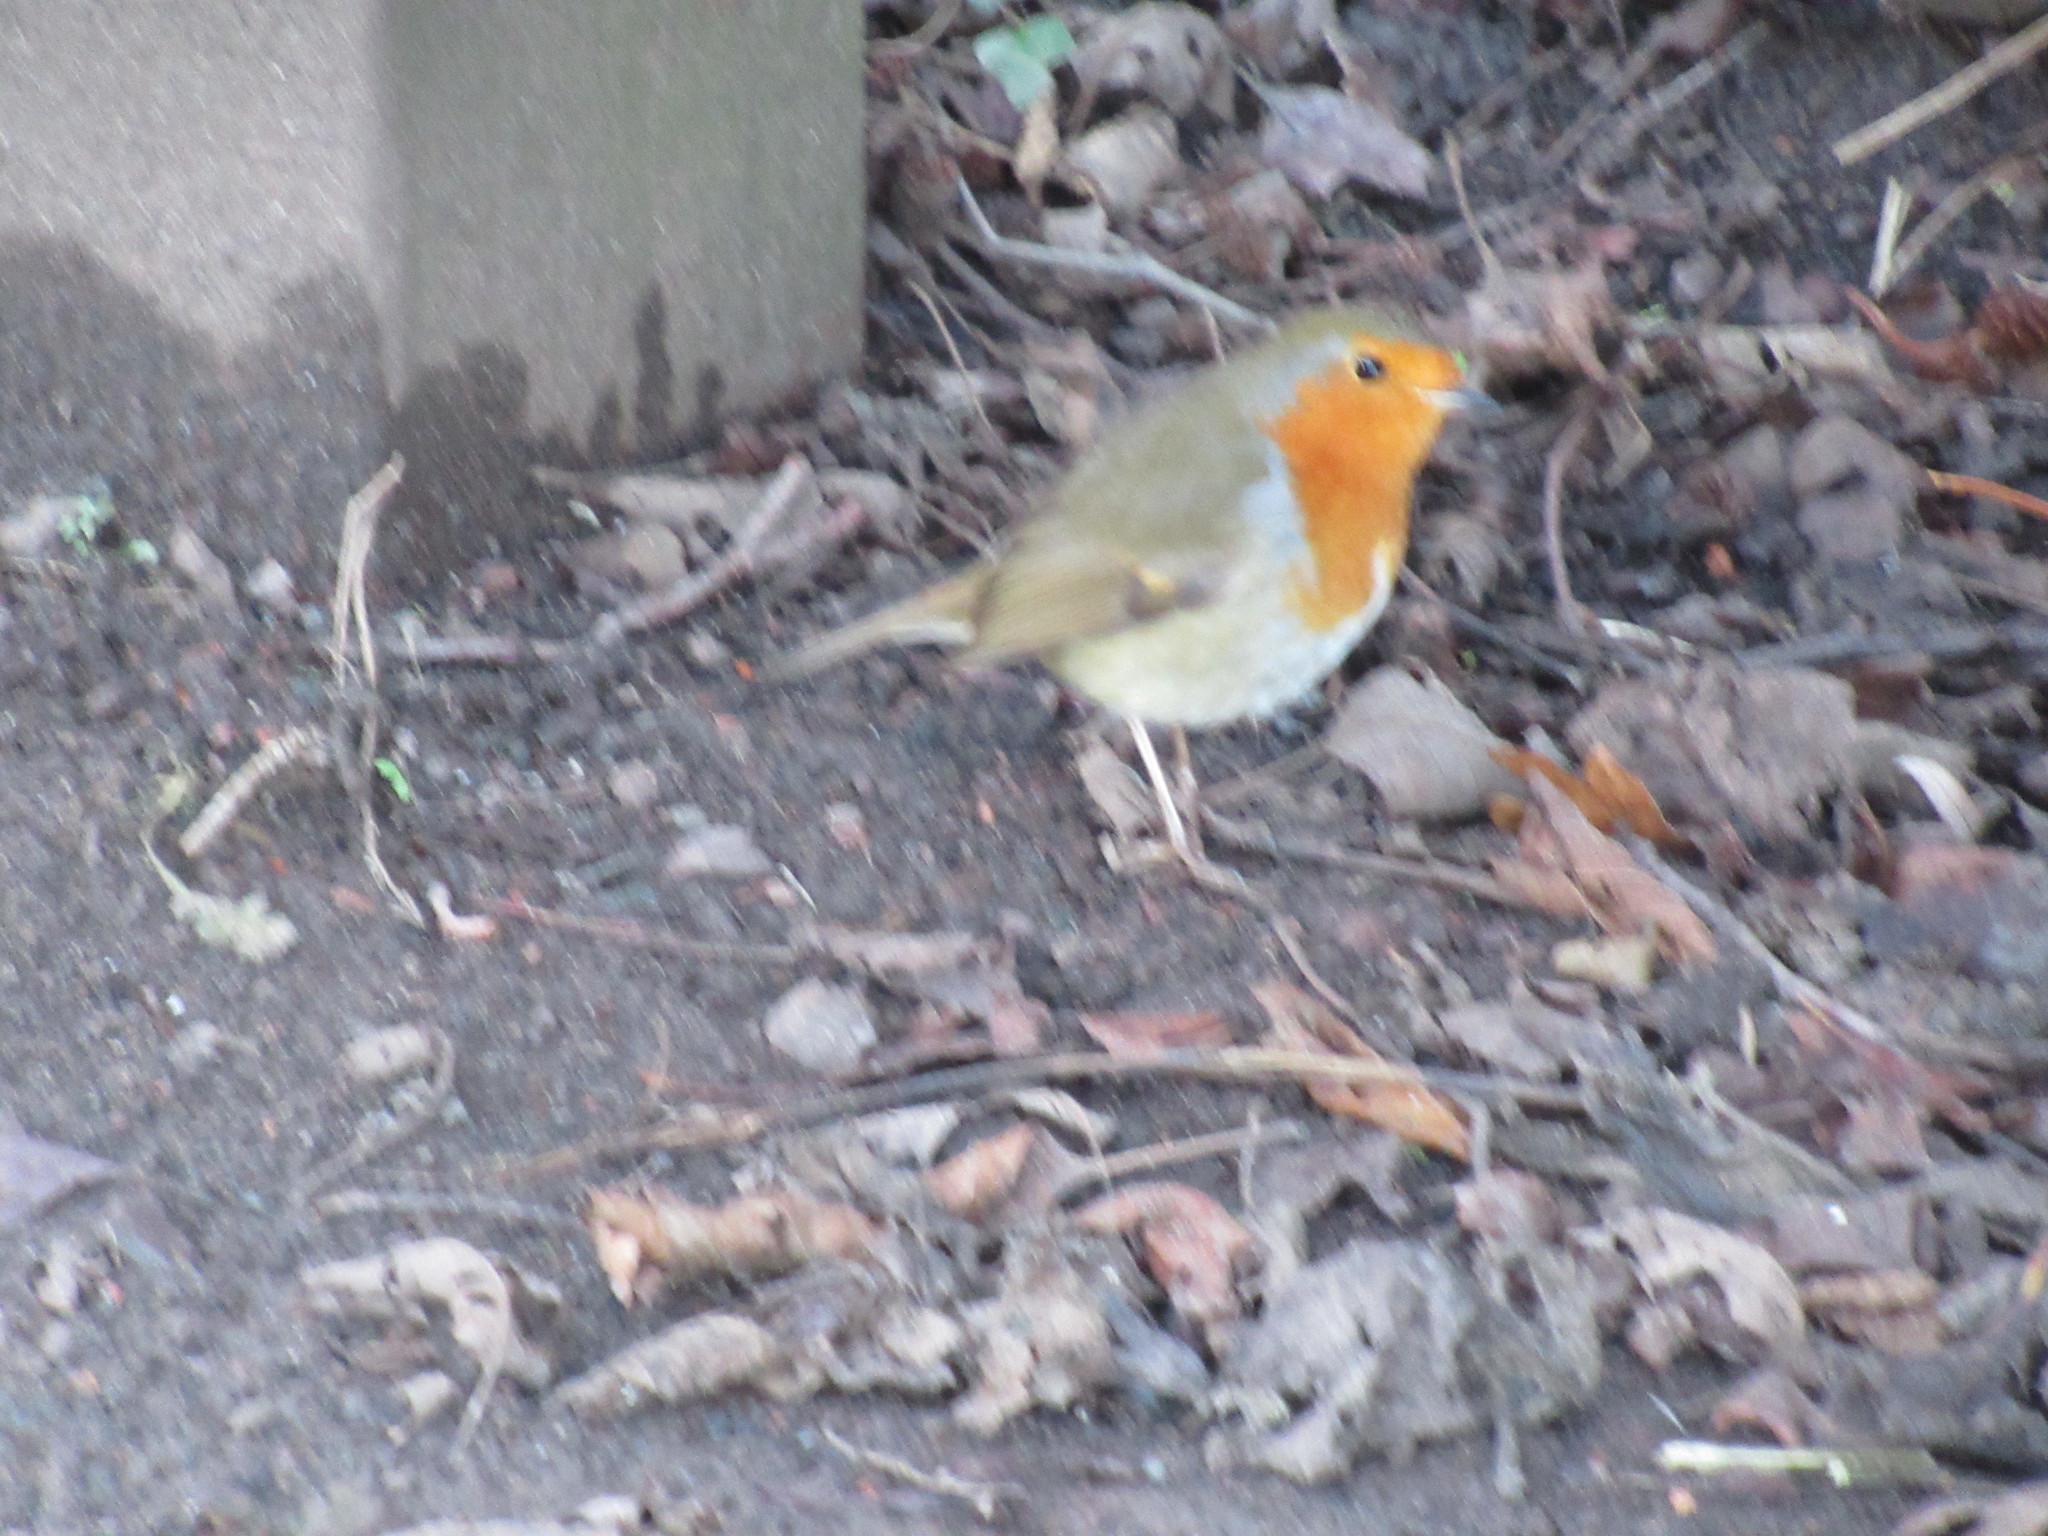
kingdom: Animalia
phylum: Chordata
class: Aves
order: Passeriformes
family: Muscicapidae
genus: Erithacus
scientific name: Erithacus rubecula
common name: European robin
